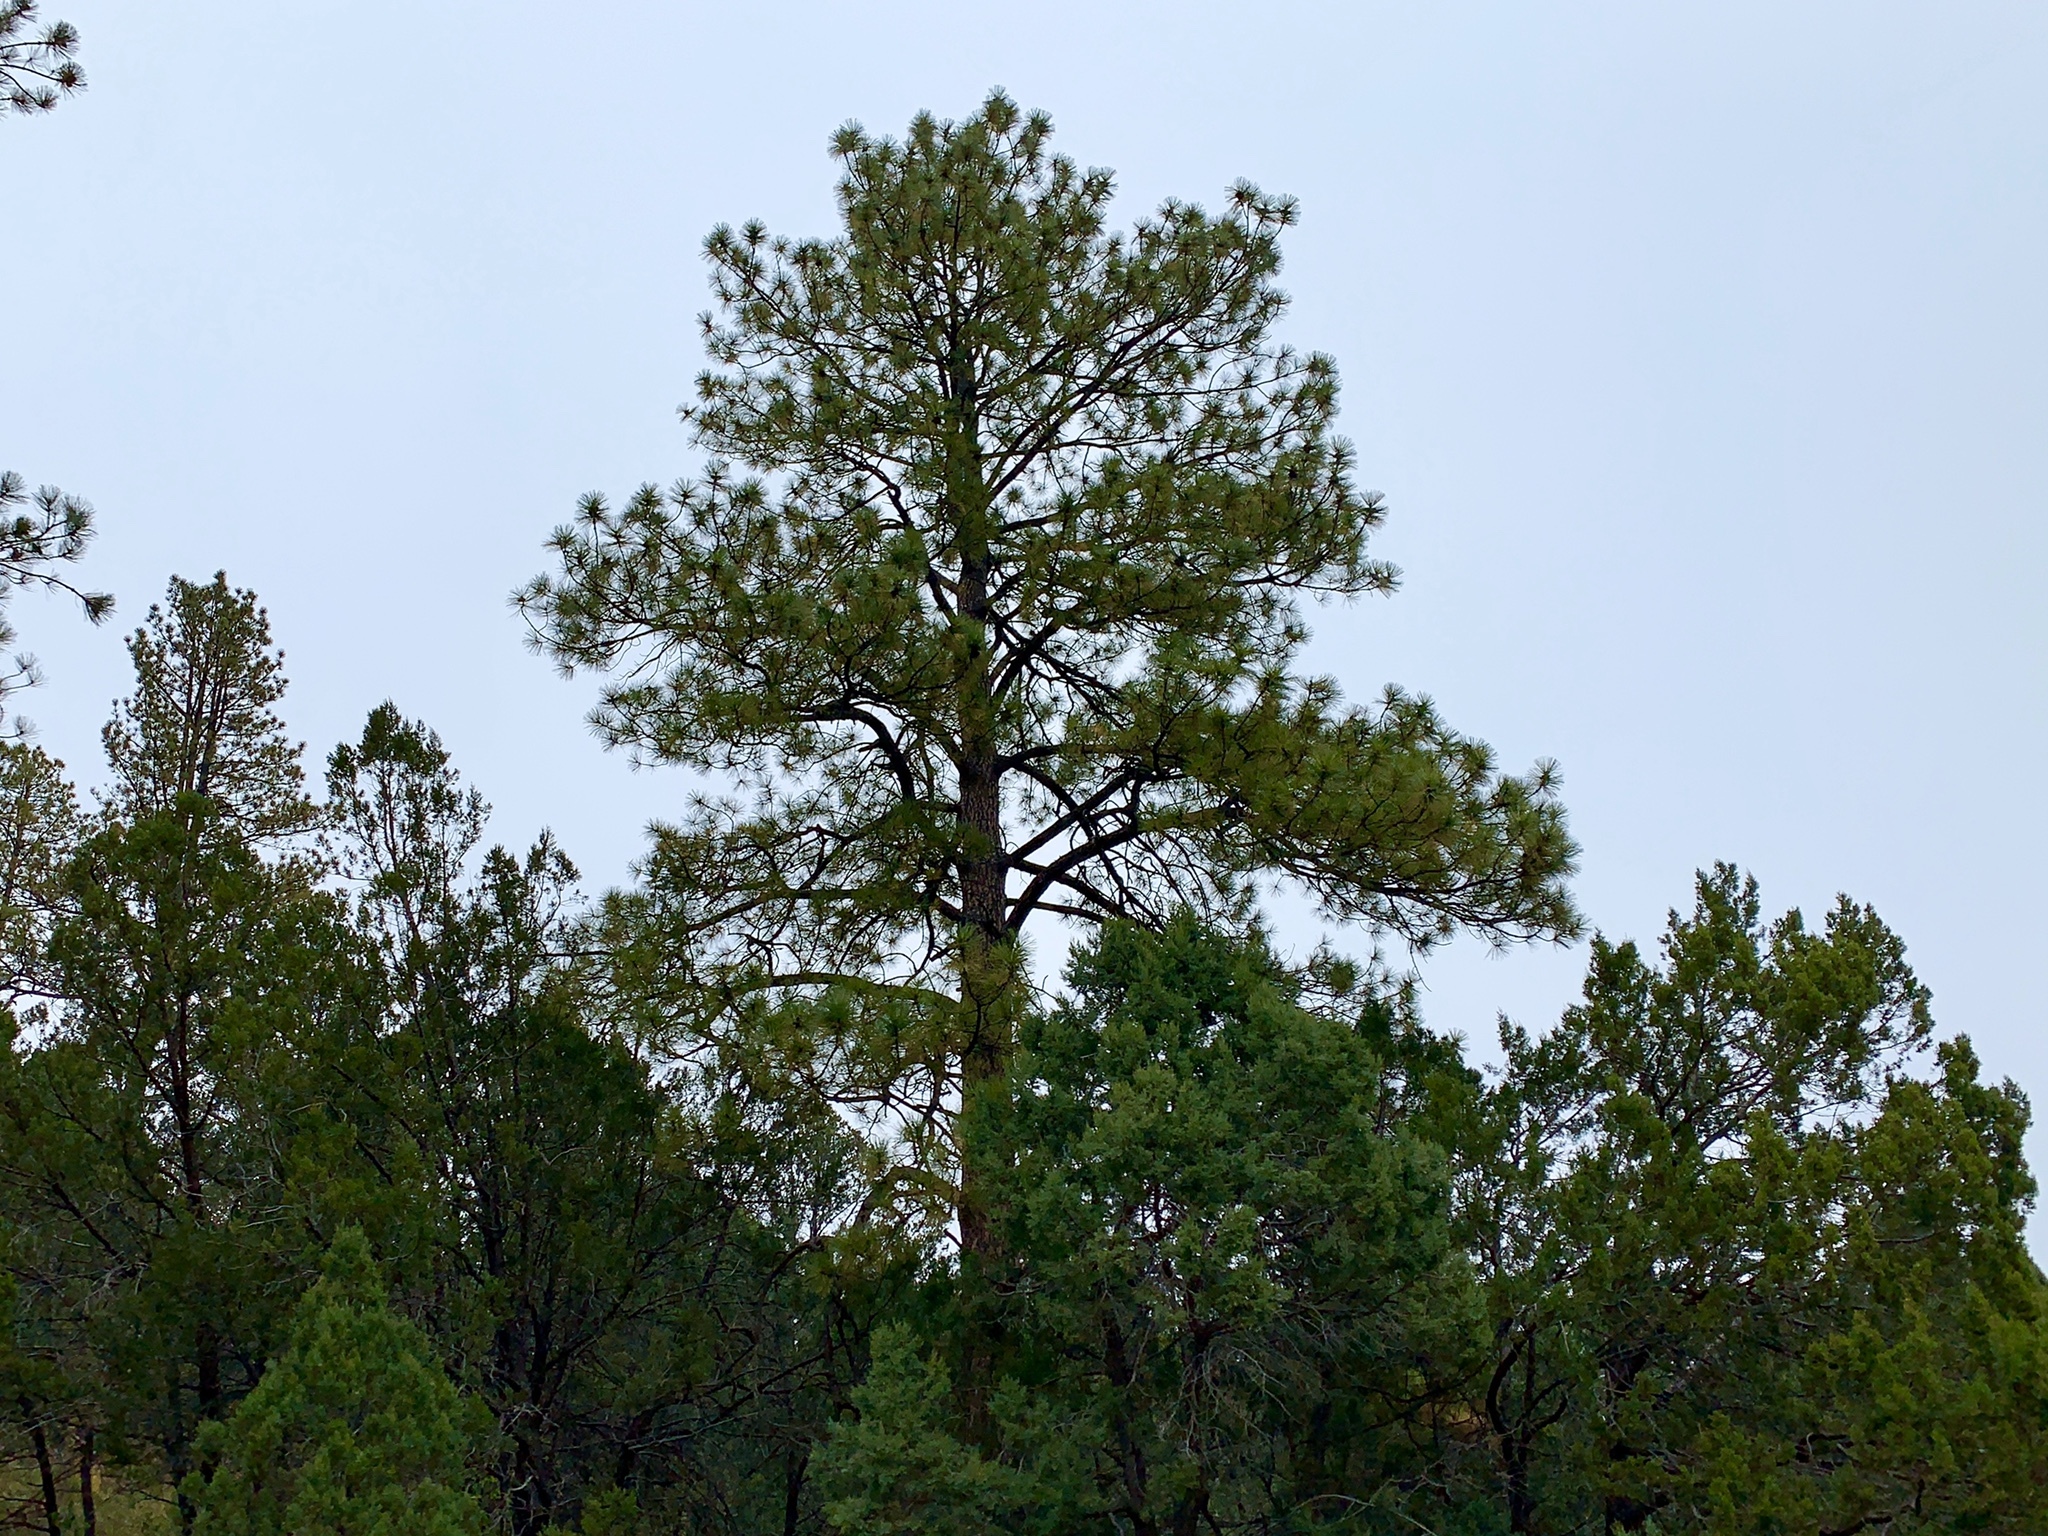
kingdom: Plantae
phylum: Tracheophyta
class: Pinopsida
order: Pinales
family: Pinaceae
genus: Pinus
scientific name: Pinus ponderosa
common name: Western yellow-pine
